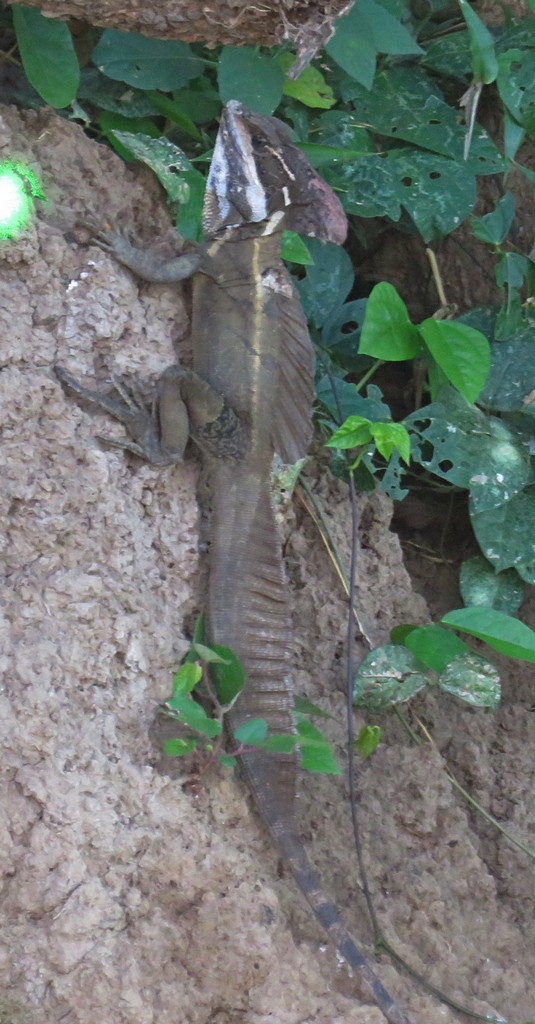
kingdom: Animalia
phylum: Chordata
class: Squamata
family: Corytophanidae
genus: Basiliscus
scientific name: Basiliscus basiliscus
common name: Common basilisk
